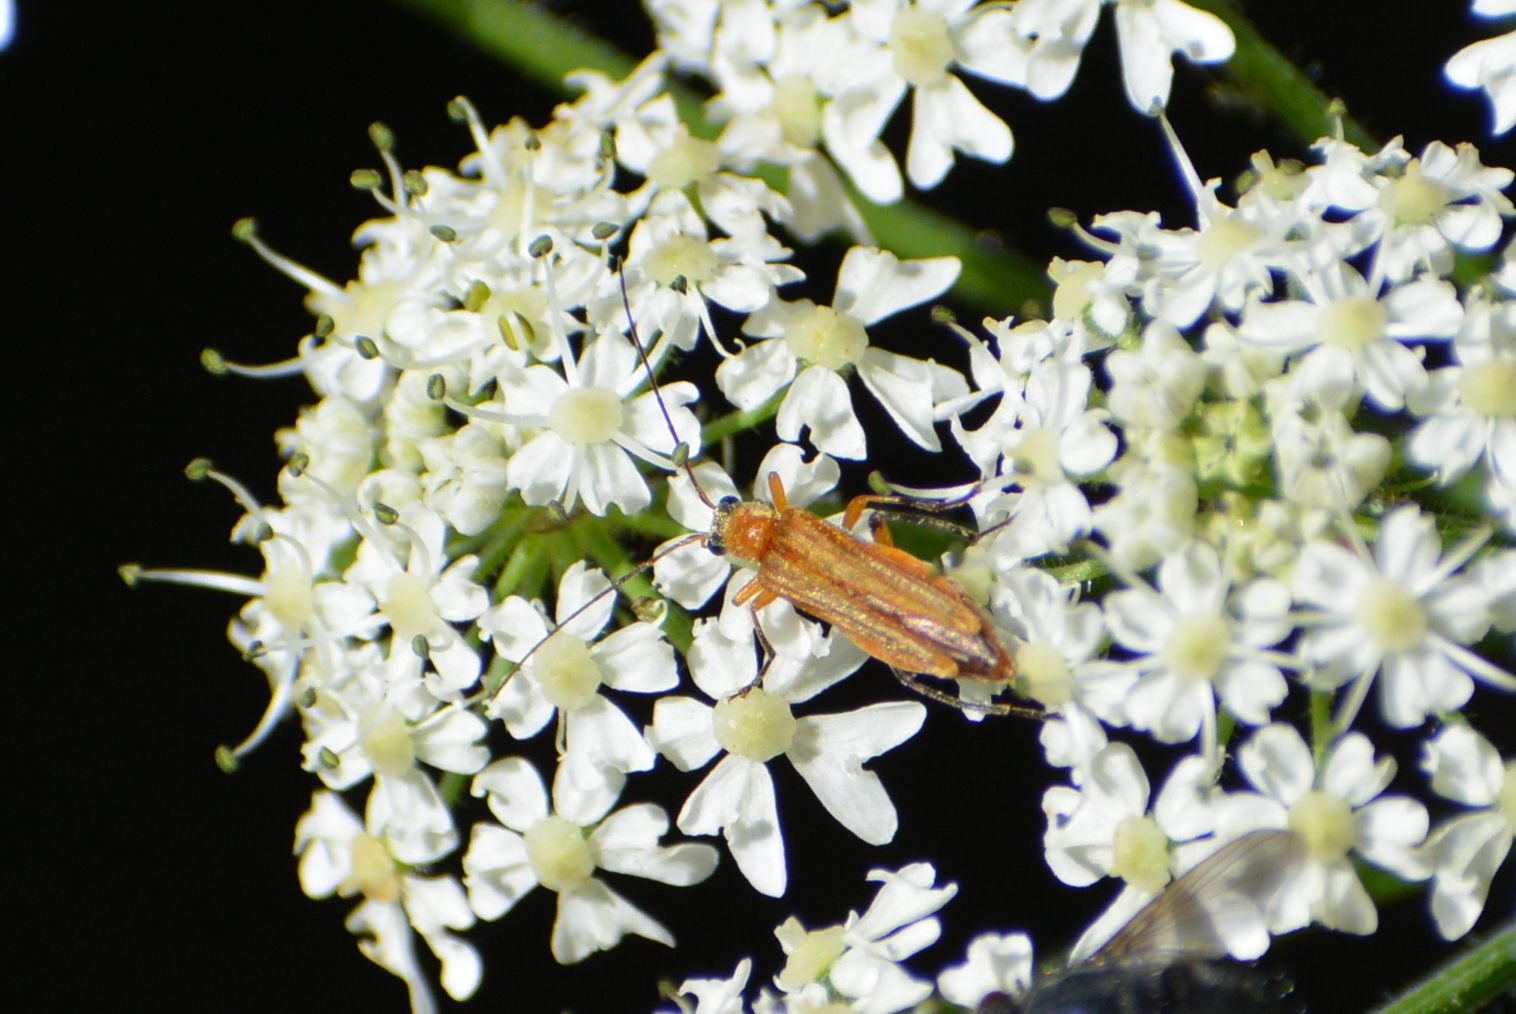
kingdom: Animalia
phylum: Arthropoda
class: Insecta
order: Coleoptera
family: Oedemeridae
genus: Oedemera
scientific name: Oedemera podagrariae
